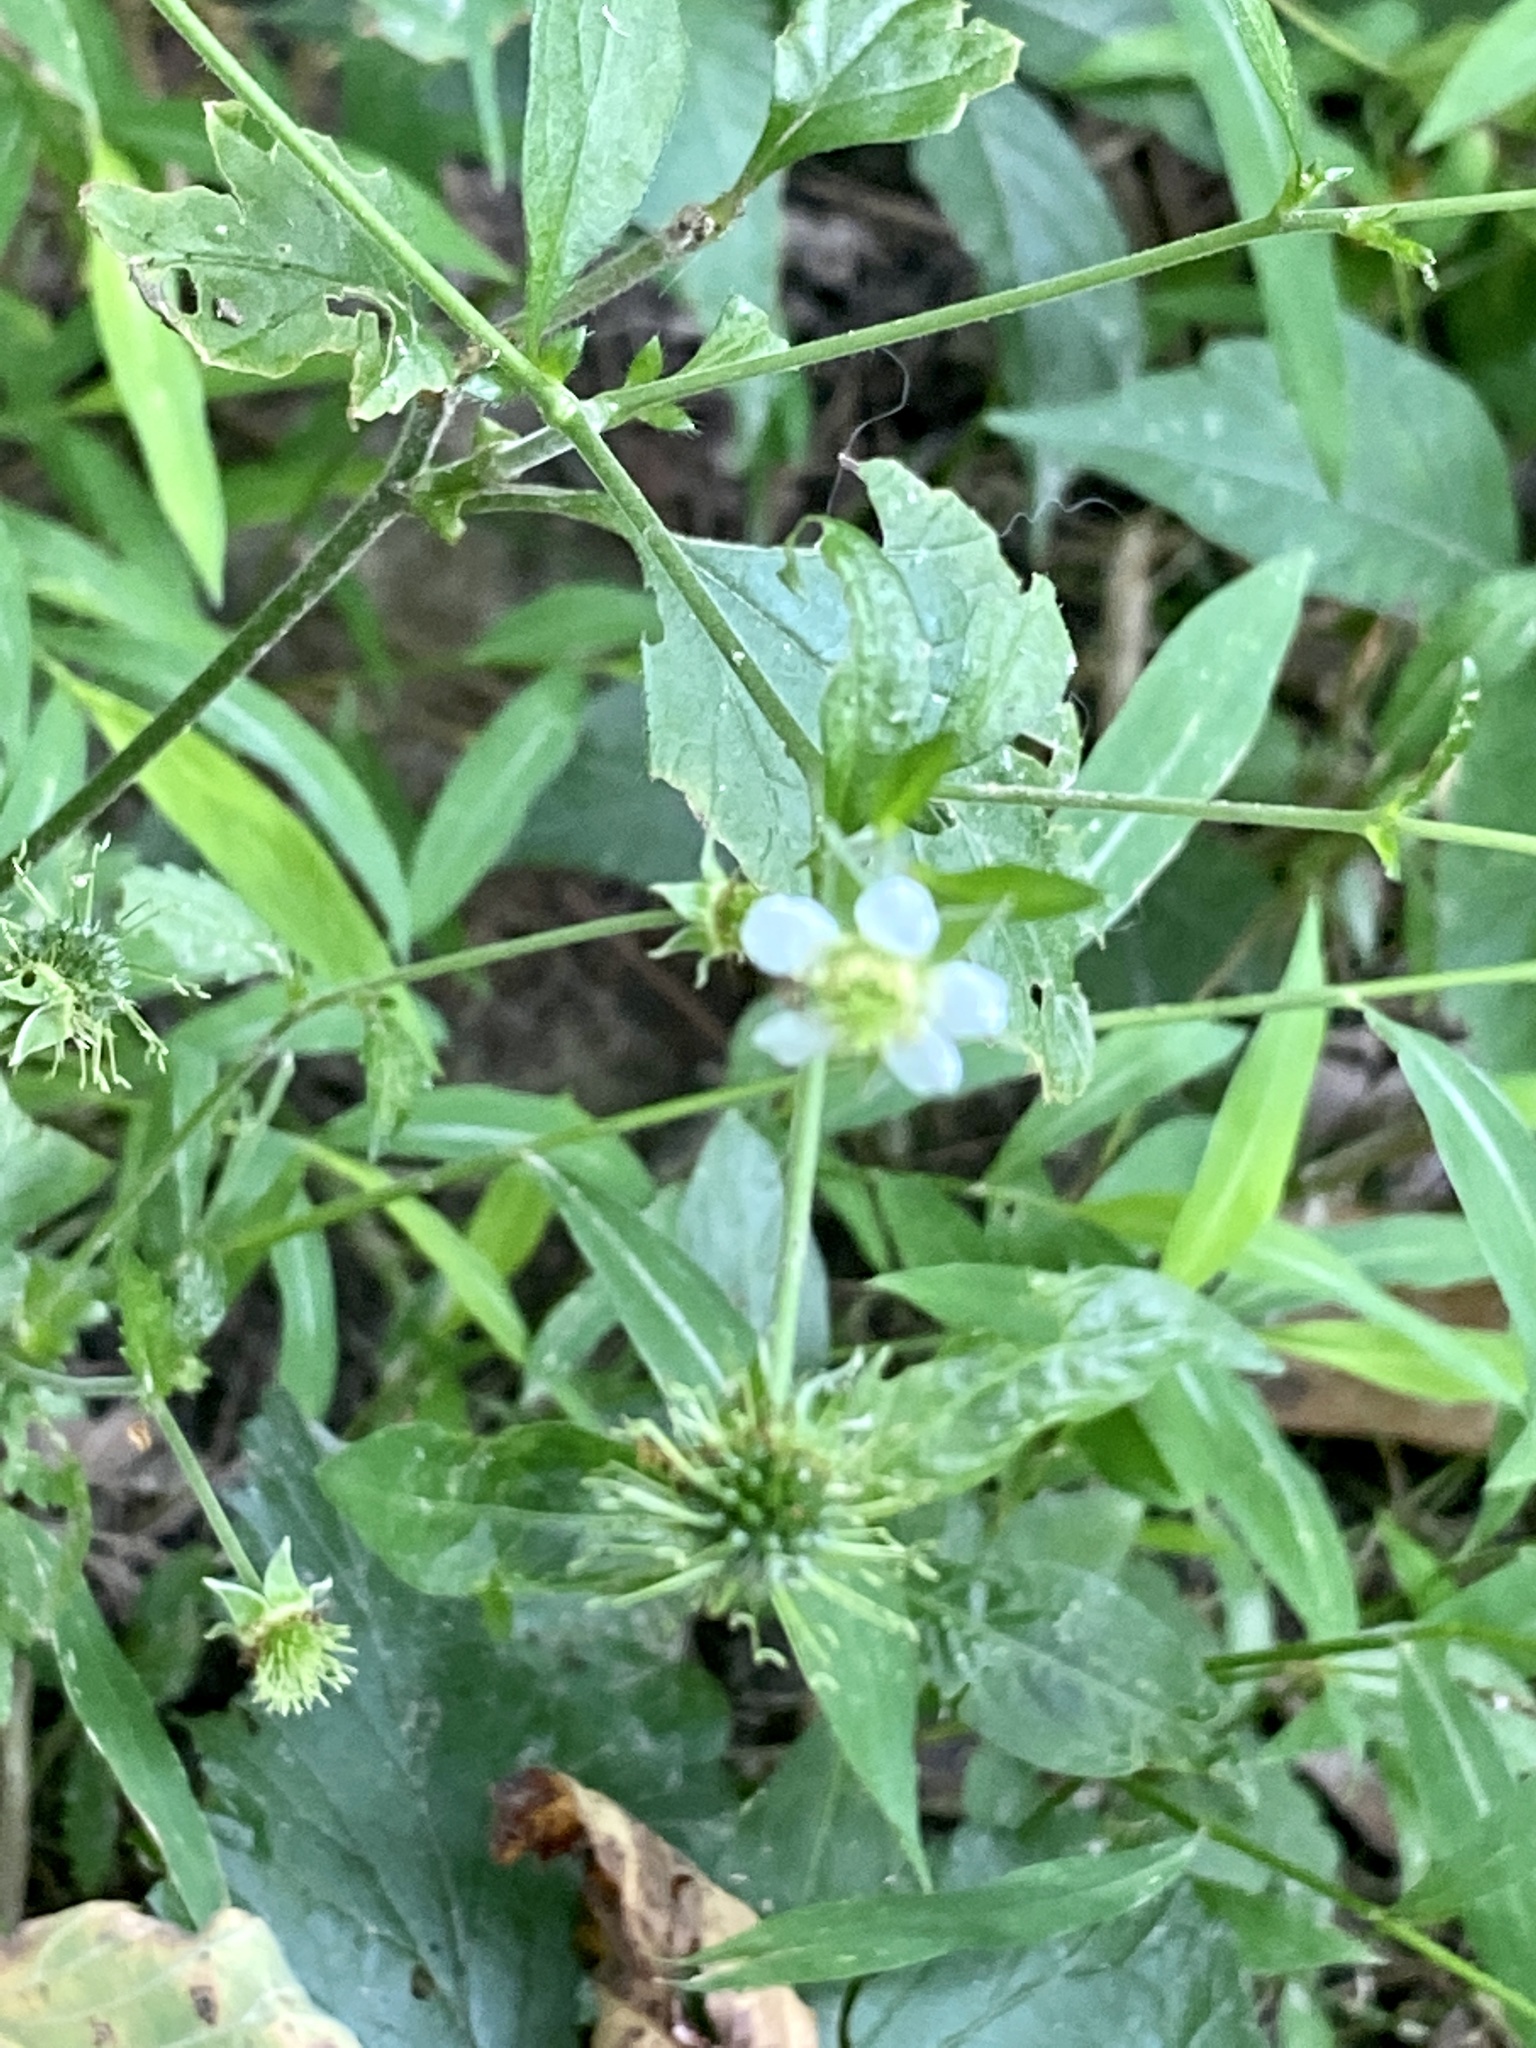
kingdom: Plantae
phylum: Tracheophyta
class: Magnoliopsida
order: Rosales
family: Rosaceae
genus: Geum
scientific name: Geum canadense
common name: White avens
